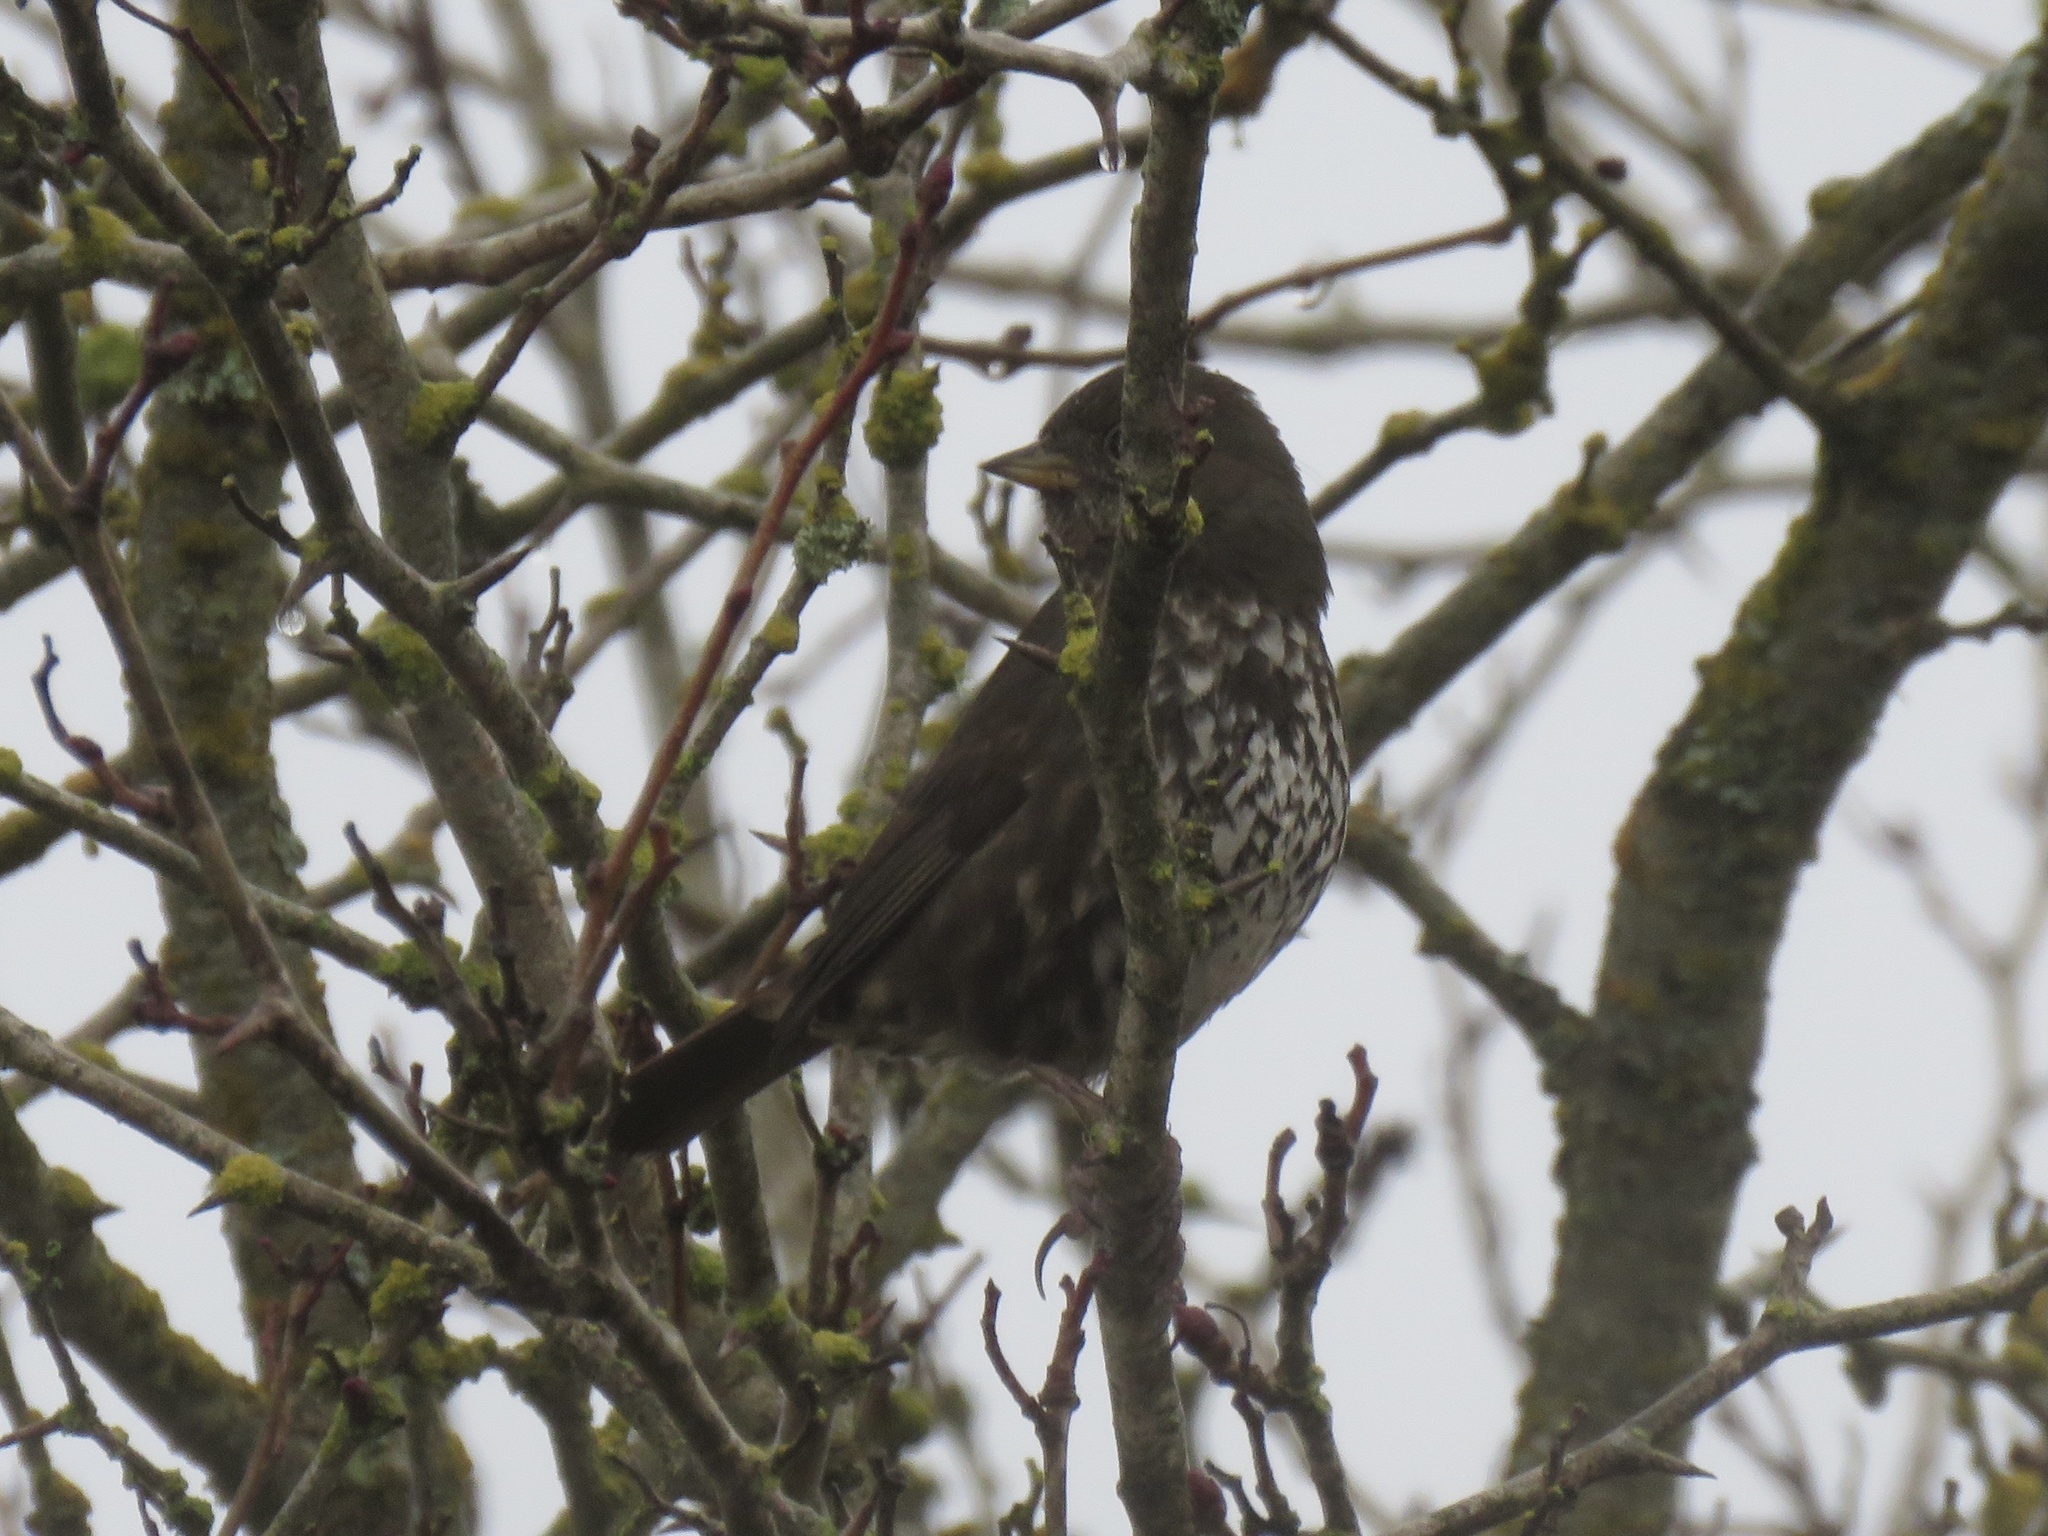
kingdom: Animalia
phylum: Chordata
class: Aves
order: Passeriformes
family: Passerellidae
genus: Passerella
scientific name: Passerella iliaca
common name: Fox sparrow
